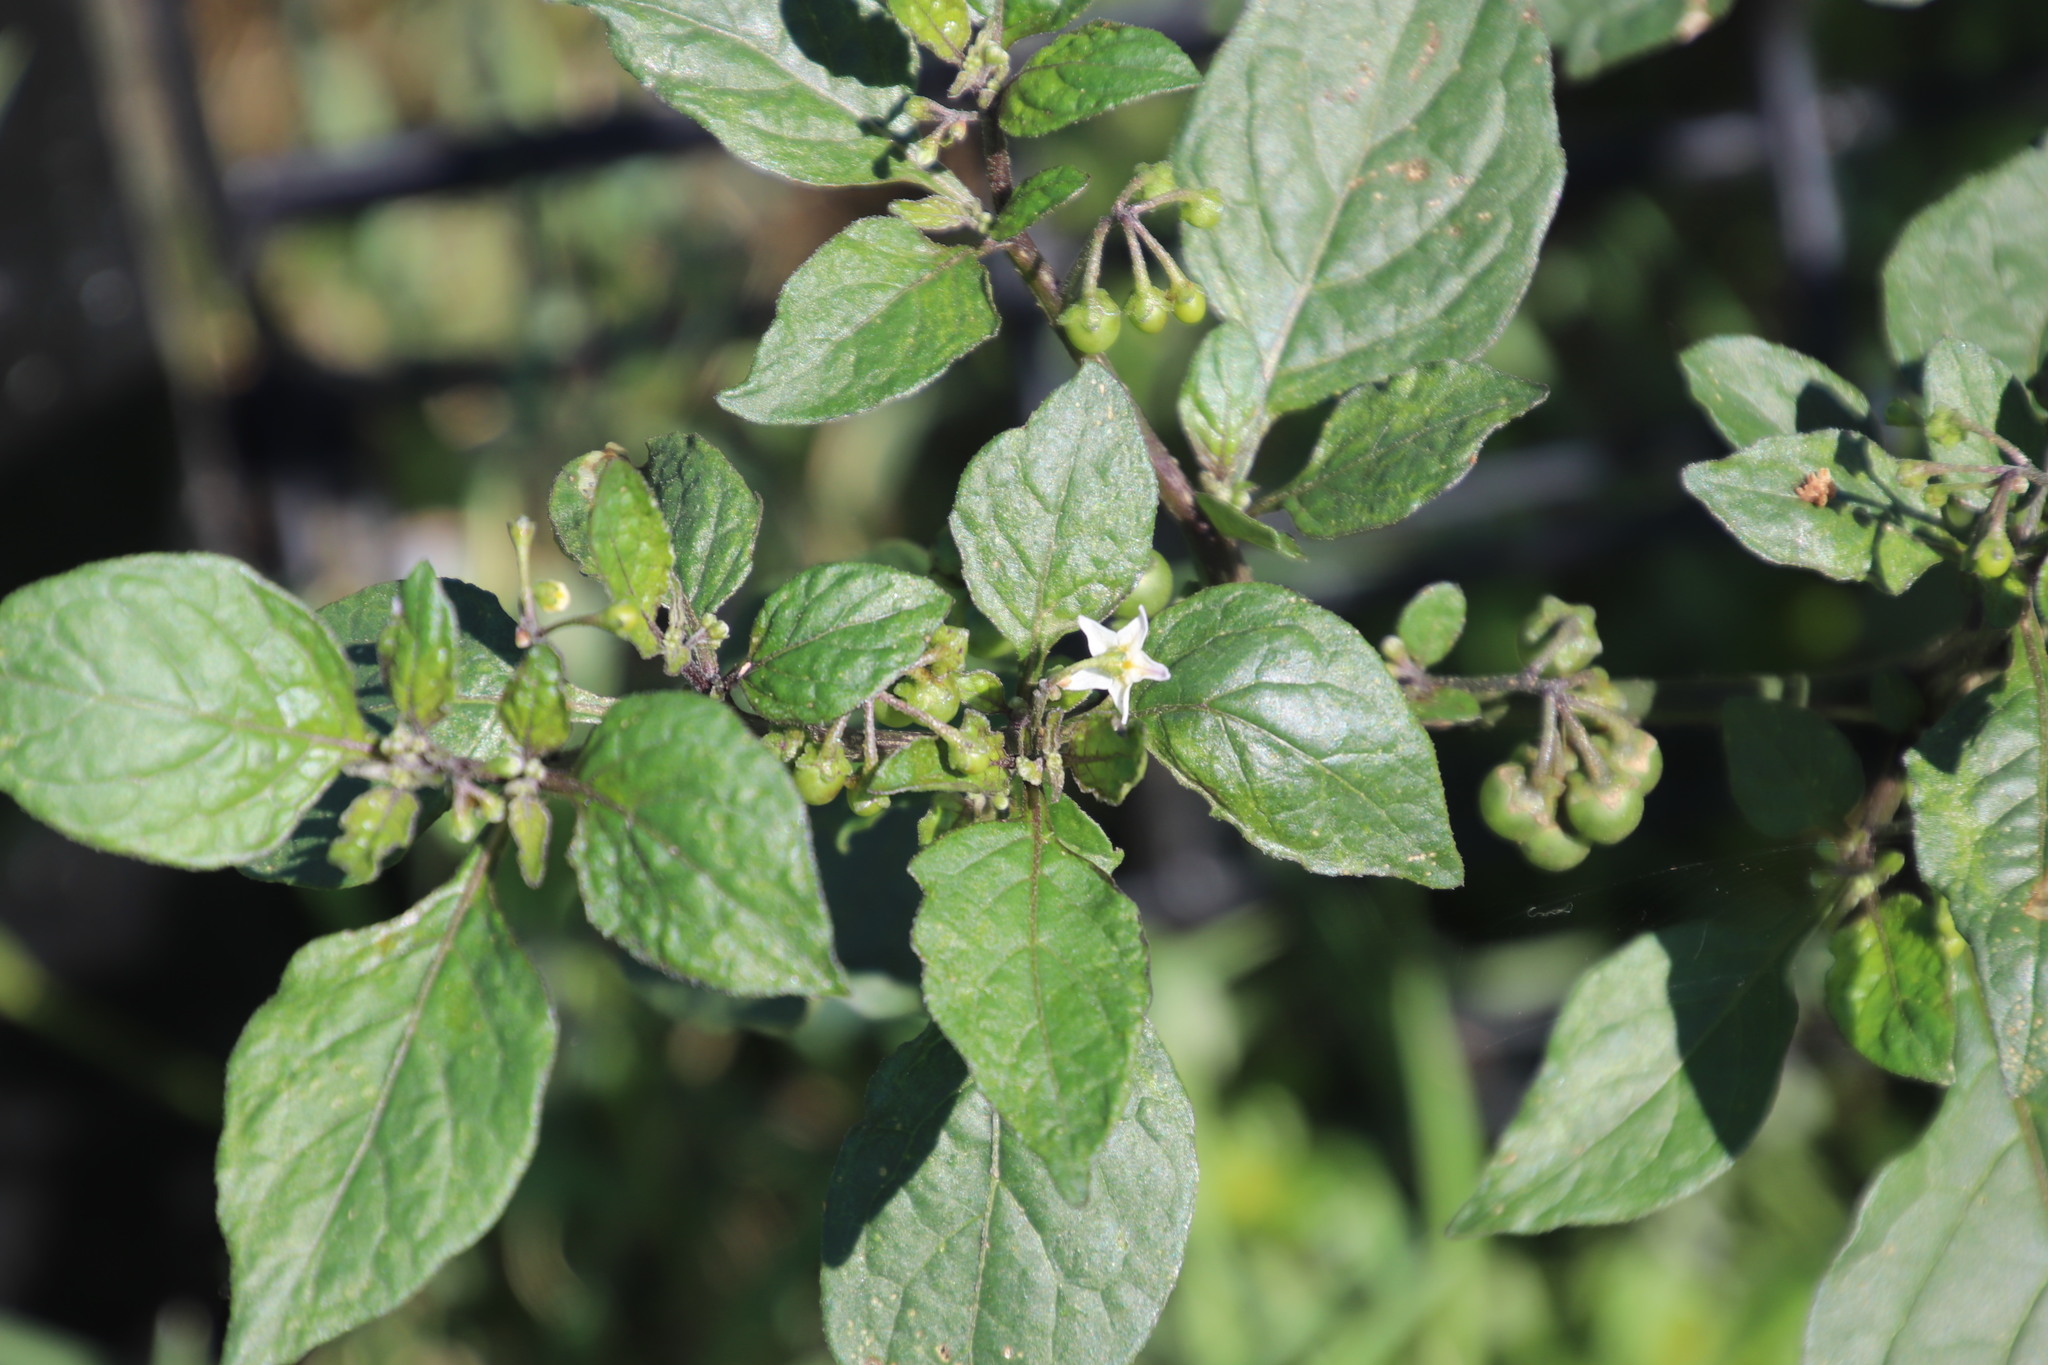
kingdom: Plantae
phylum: Tracheophyta
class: Magnoliopsida
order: Solanales
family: Solanaceae
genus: Solanum
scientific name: Solanum nigrum
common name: Black nightshade
